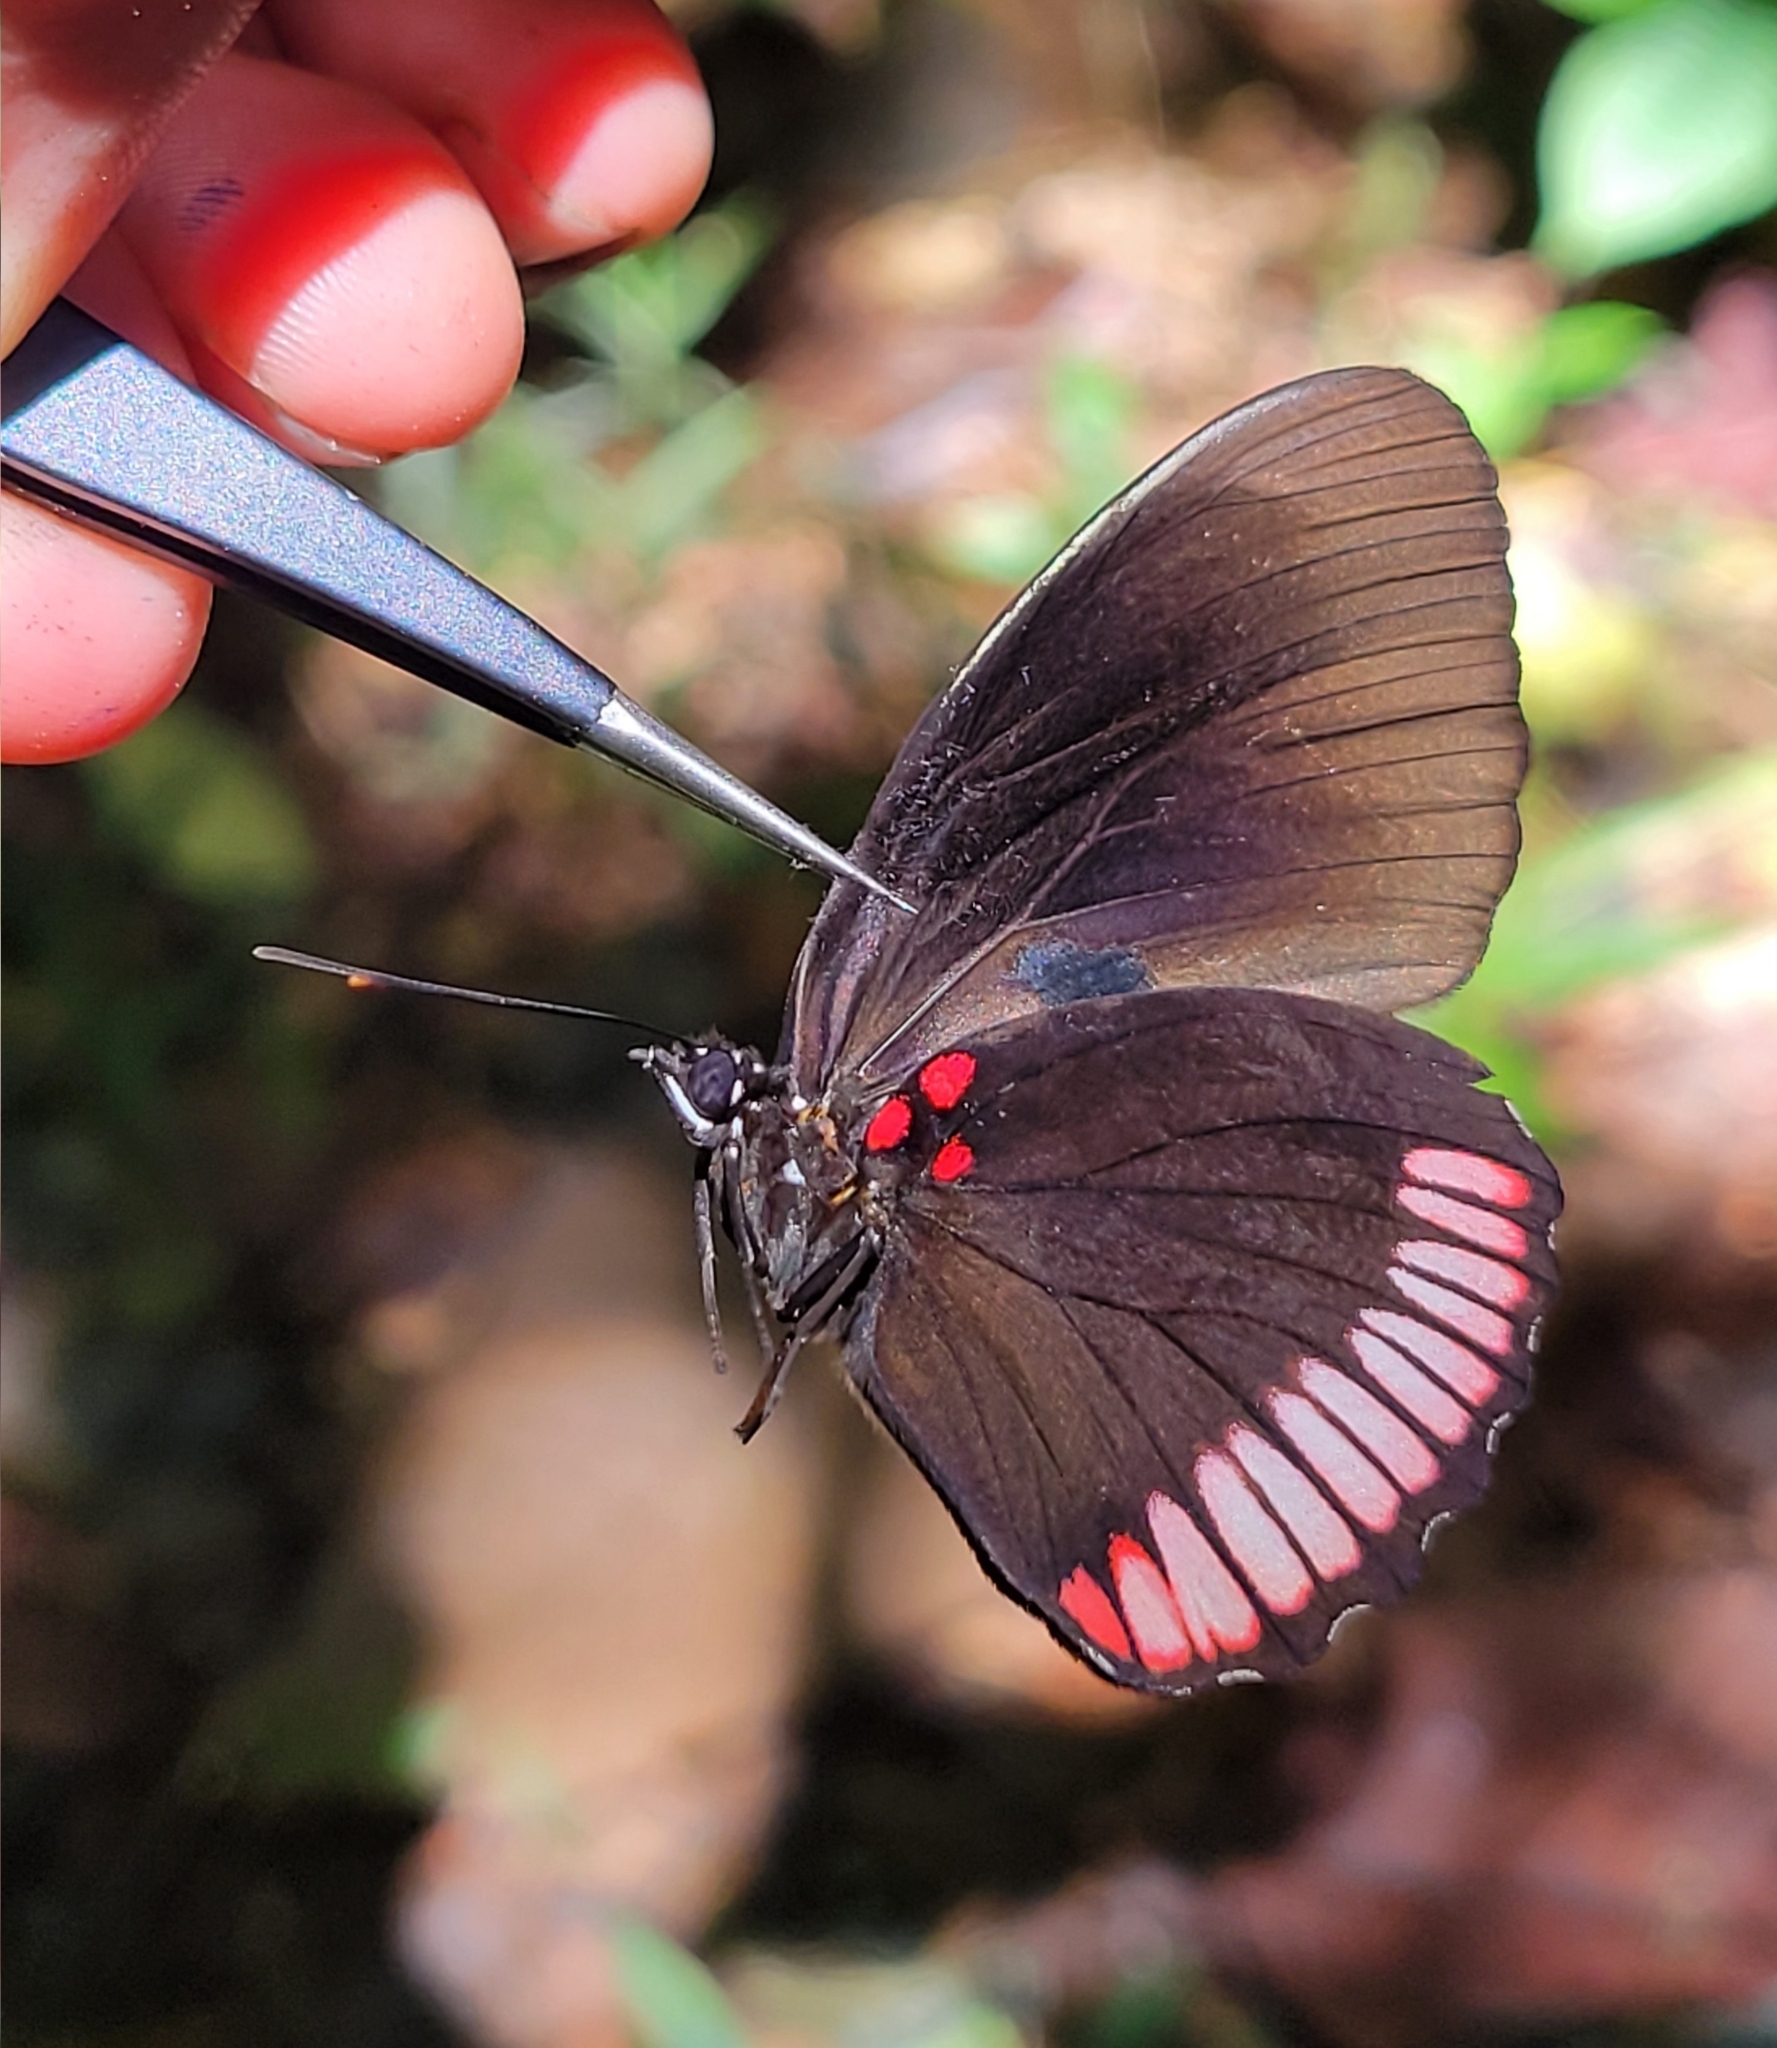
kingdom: Animalia
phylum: Arthropoda
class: Insecta
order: Lepidoptera
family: Sesiidae
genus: Sesia
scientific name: Sesia Biblis hyperia
